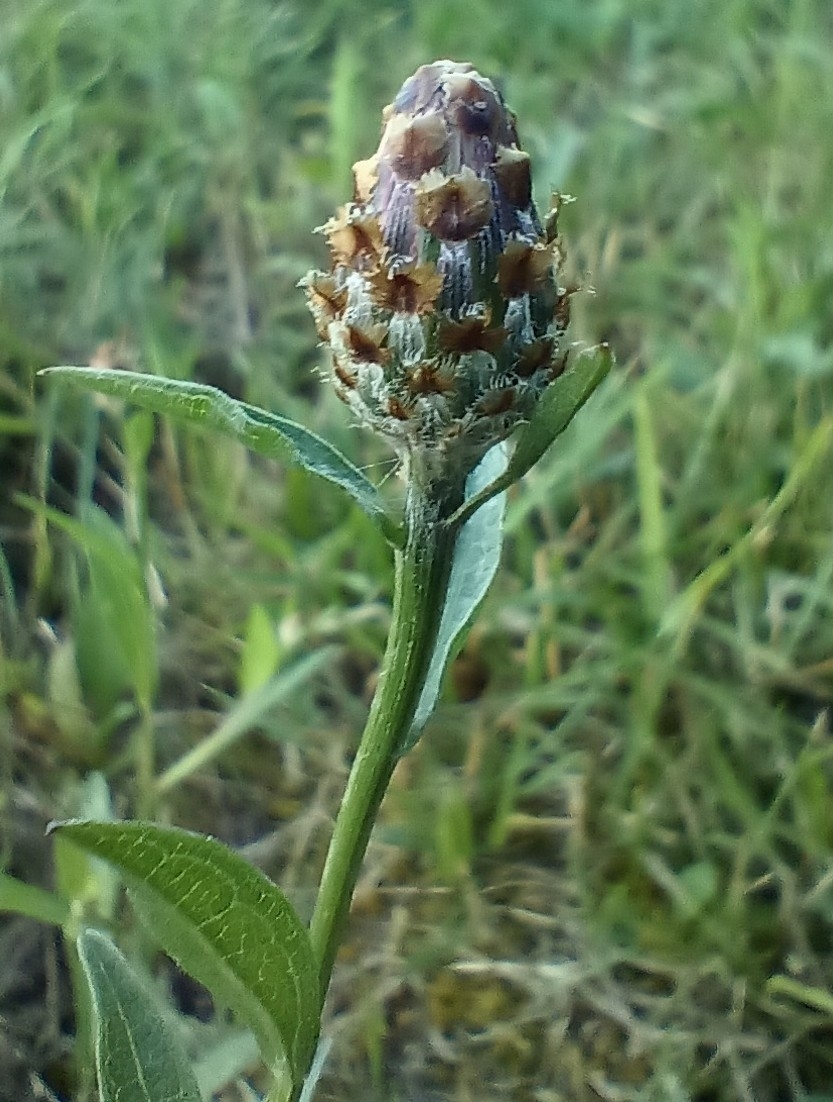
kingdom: Plantae
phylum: Tracheophyta
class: Magnoliopsida
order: Asterales
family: Asteraceae
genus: Centaurea
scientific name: Centaurea jacea
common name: Brown knapweed
